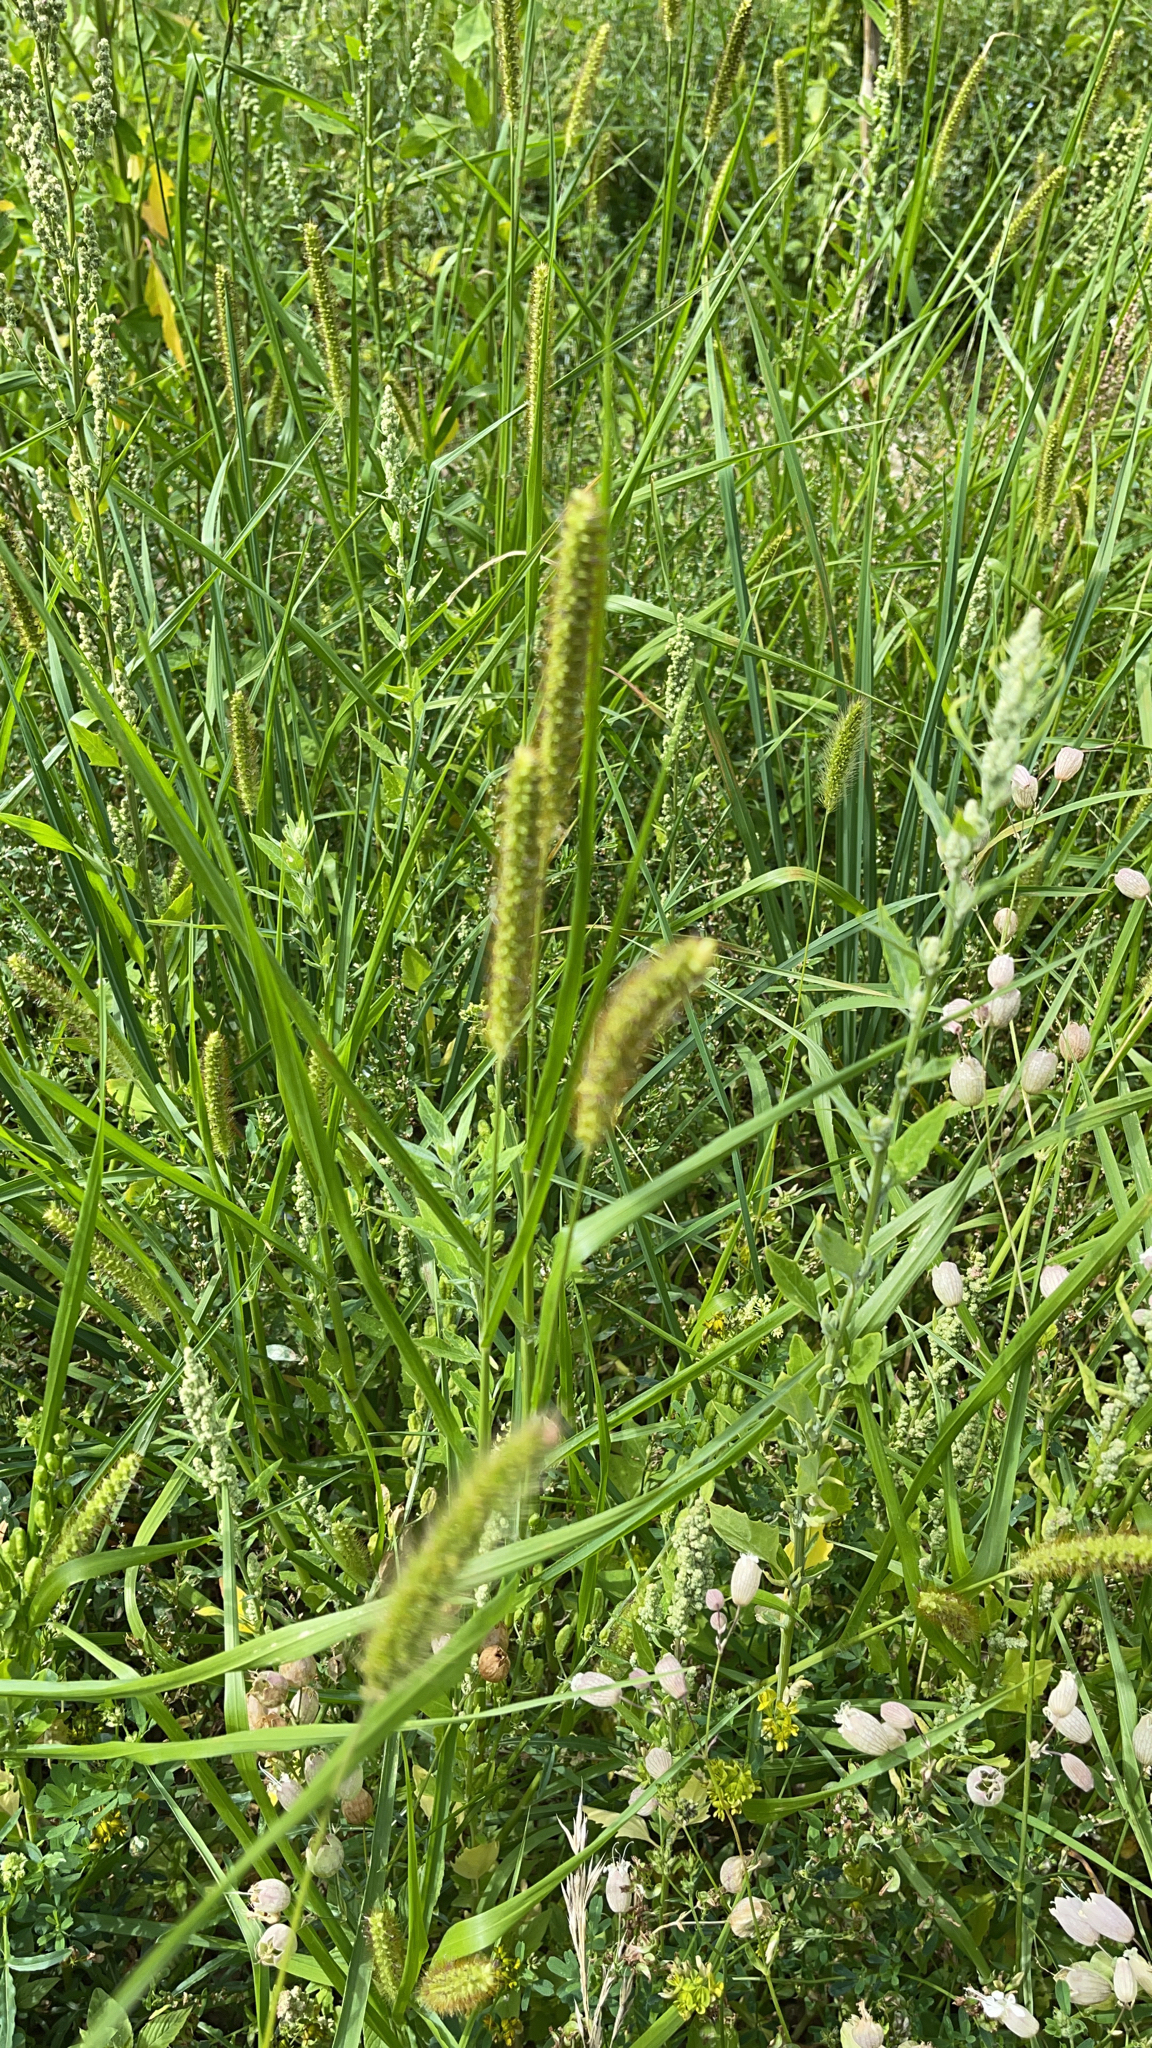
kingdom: Plantae
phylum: Tracheophyta
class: Liliopsida
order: Poales
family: Poaceae
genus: Setaria
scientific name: Setaria pumila
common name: Yellow bristle-grass
